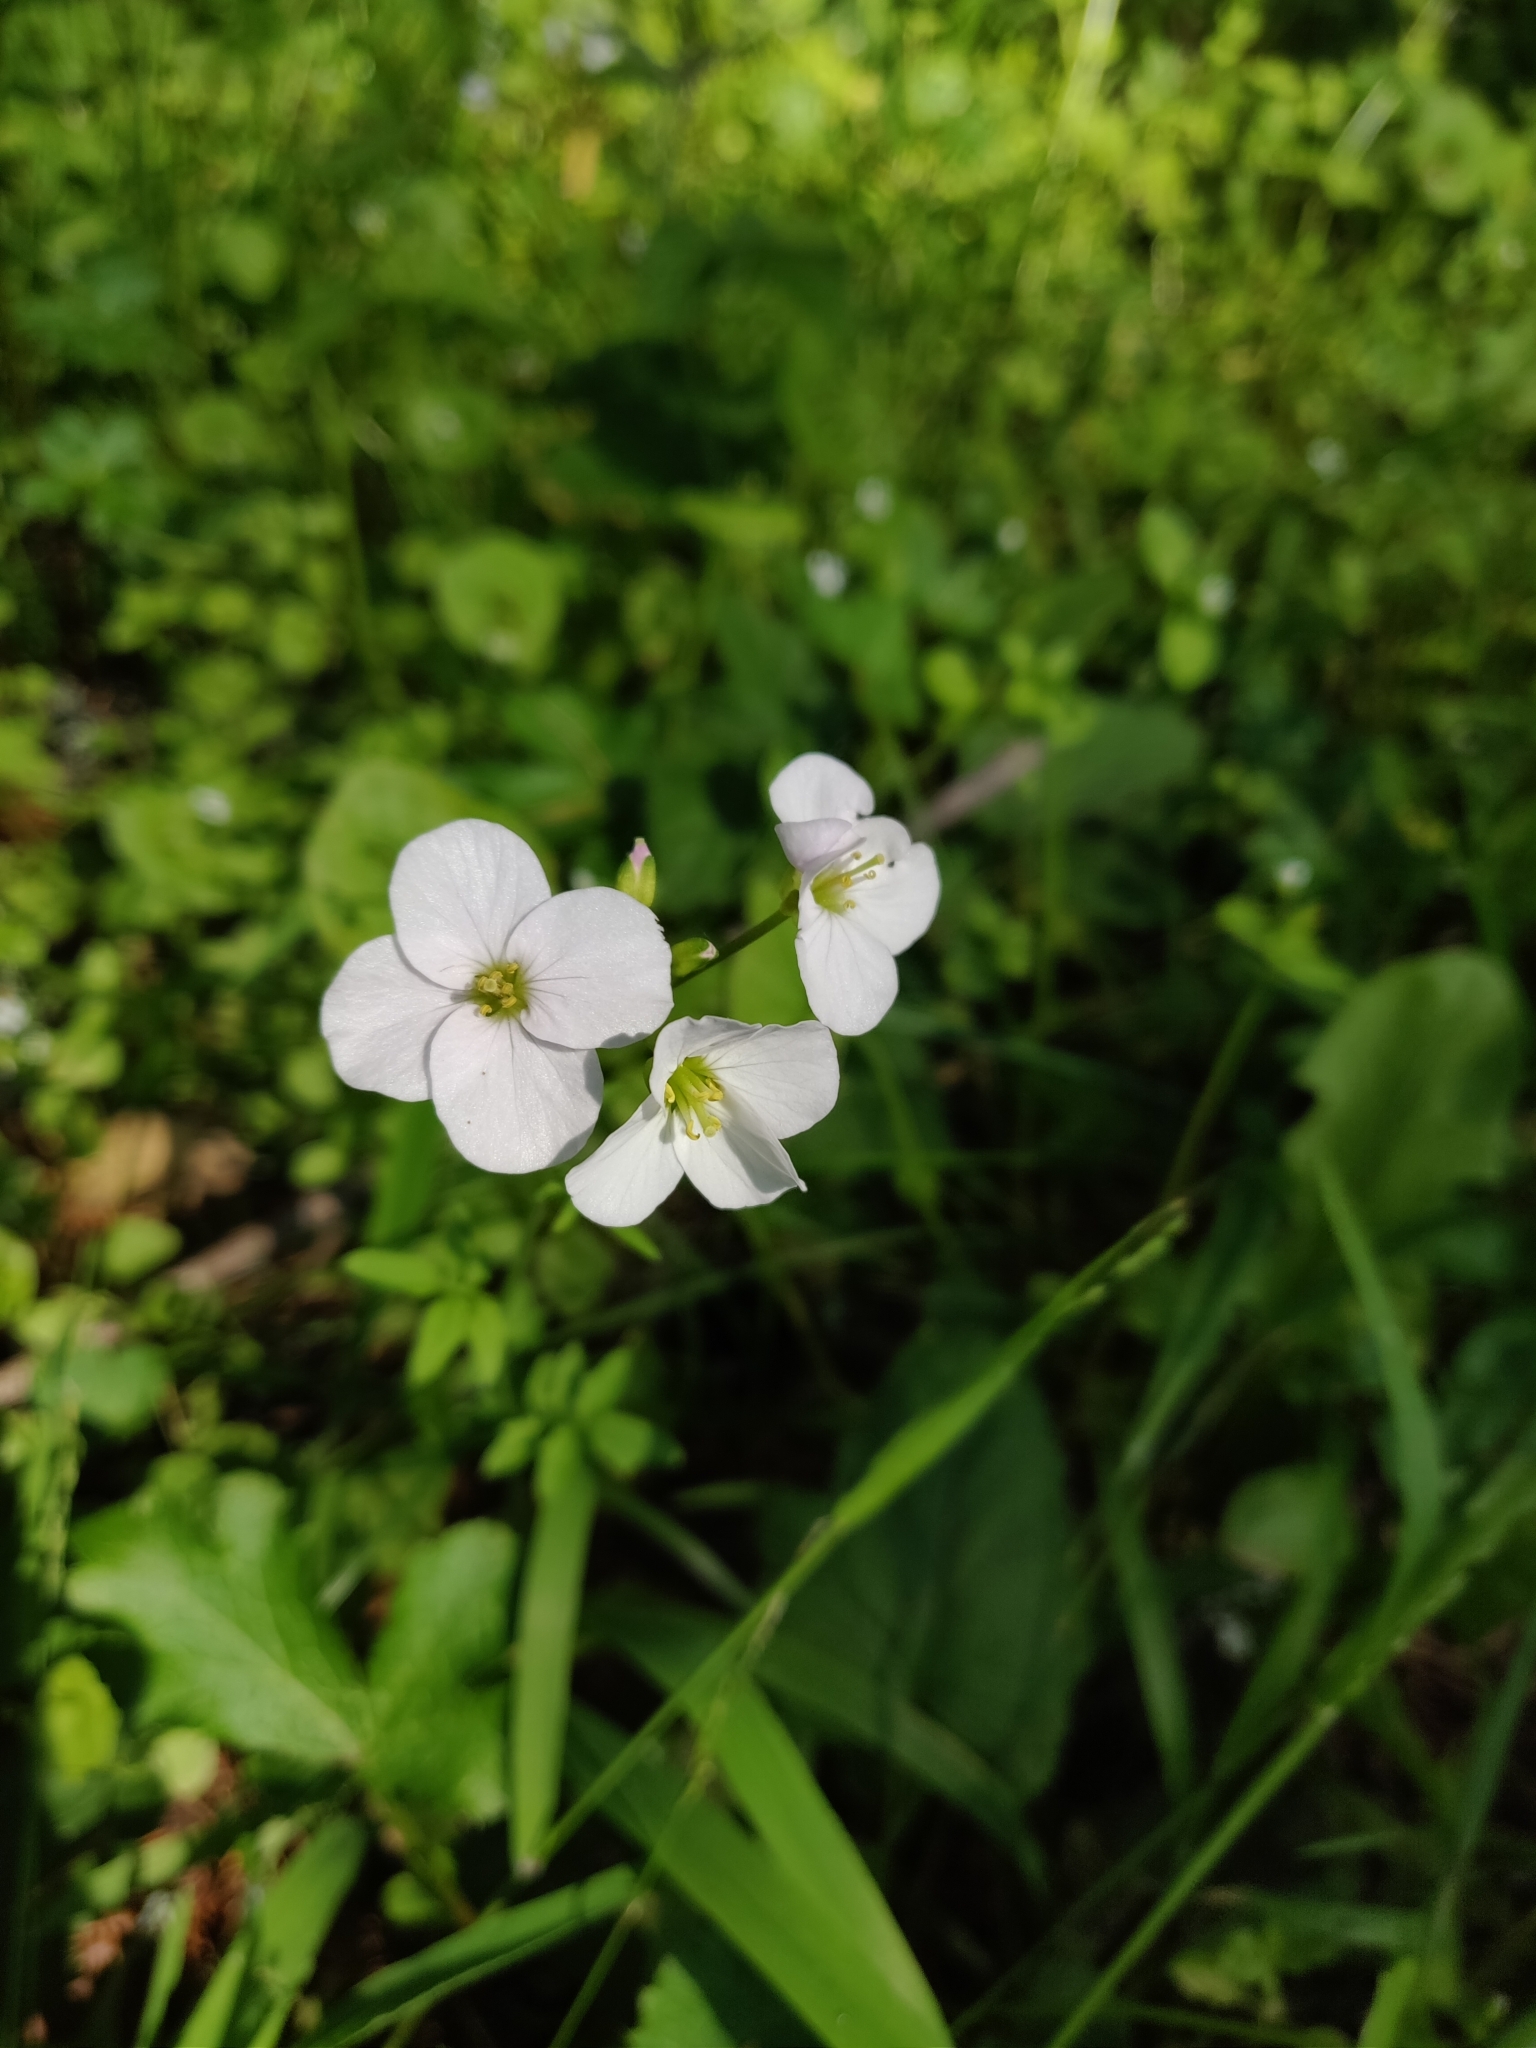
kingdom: Plantae
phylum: Tracheophyta
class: Magnoliopsida
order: Brassicales
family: Brassicaceae
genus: Cardamine
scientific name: Cardamine californica
